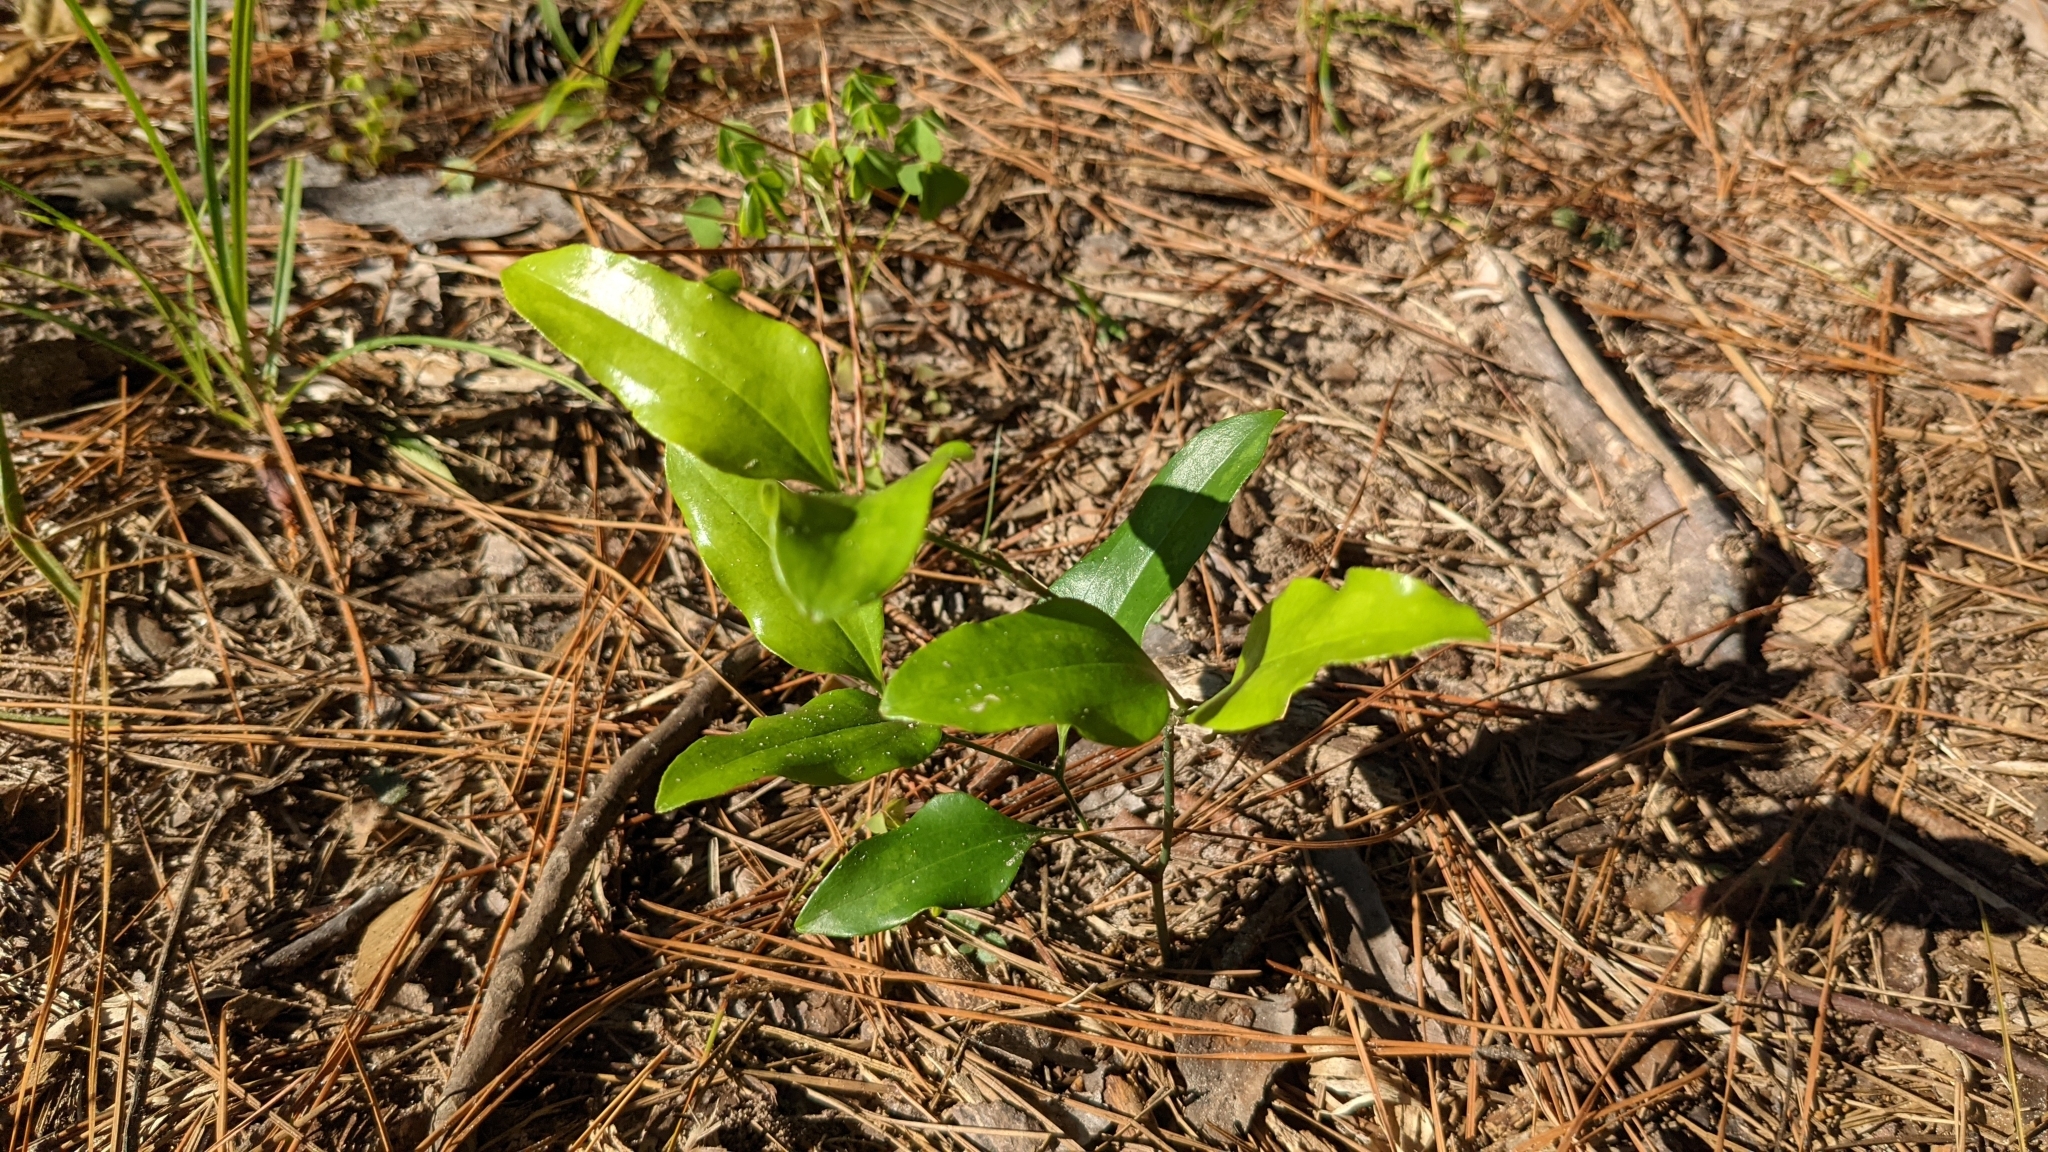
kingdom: Plantae
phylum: Tracheophyta
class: Liliopsida
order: Liliales
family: Smilacaceae
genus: Smilax
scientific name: Smilax maritima
